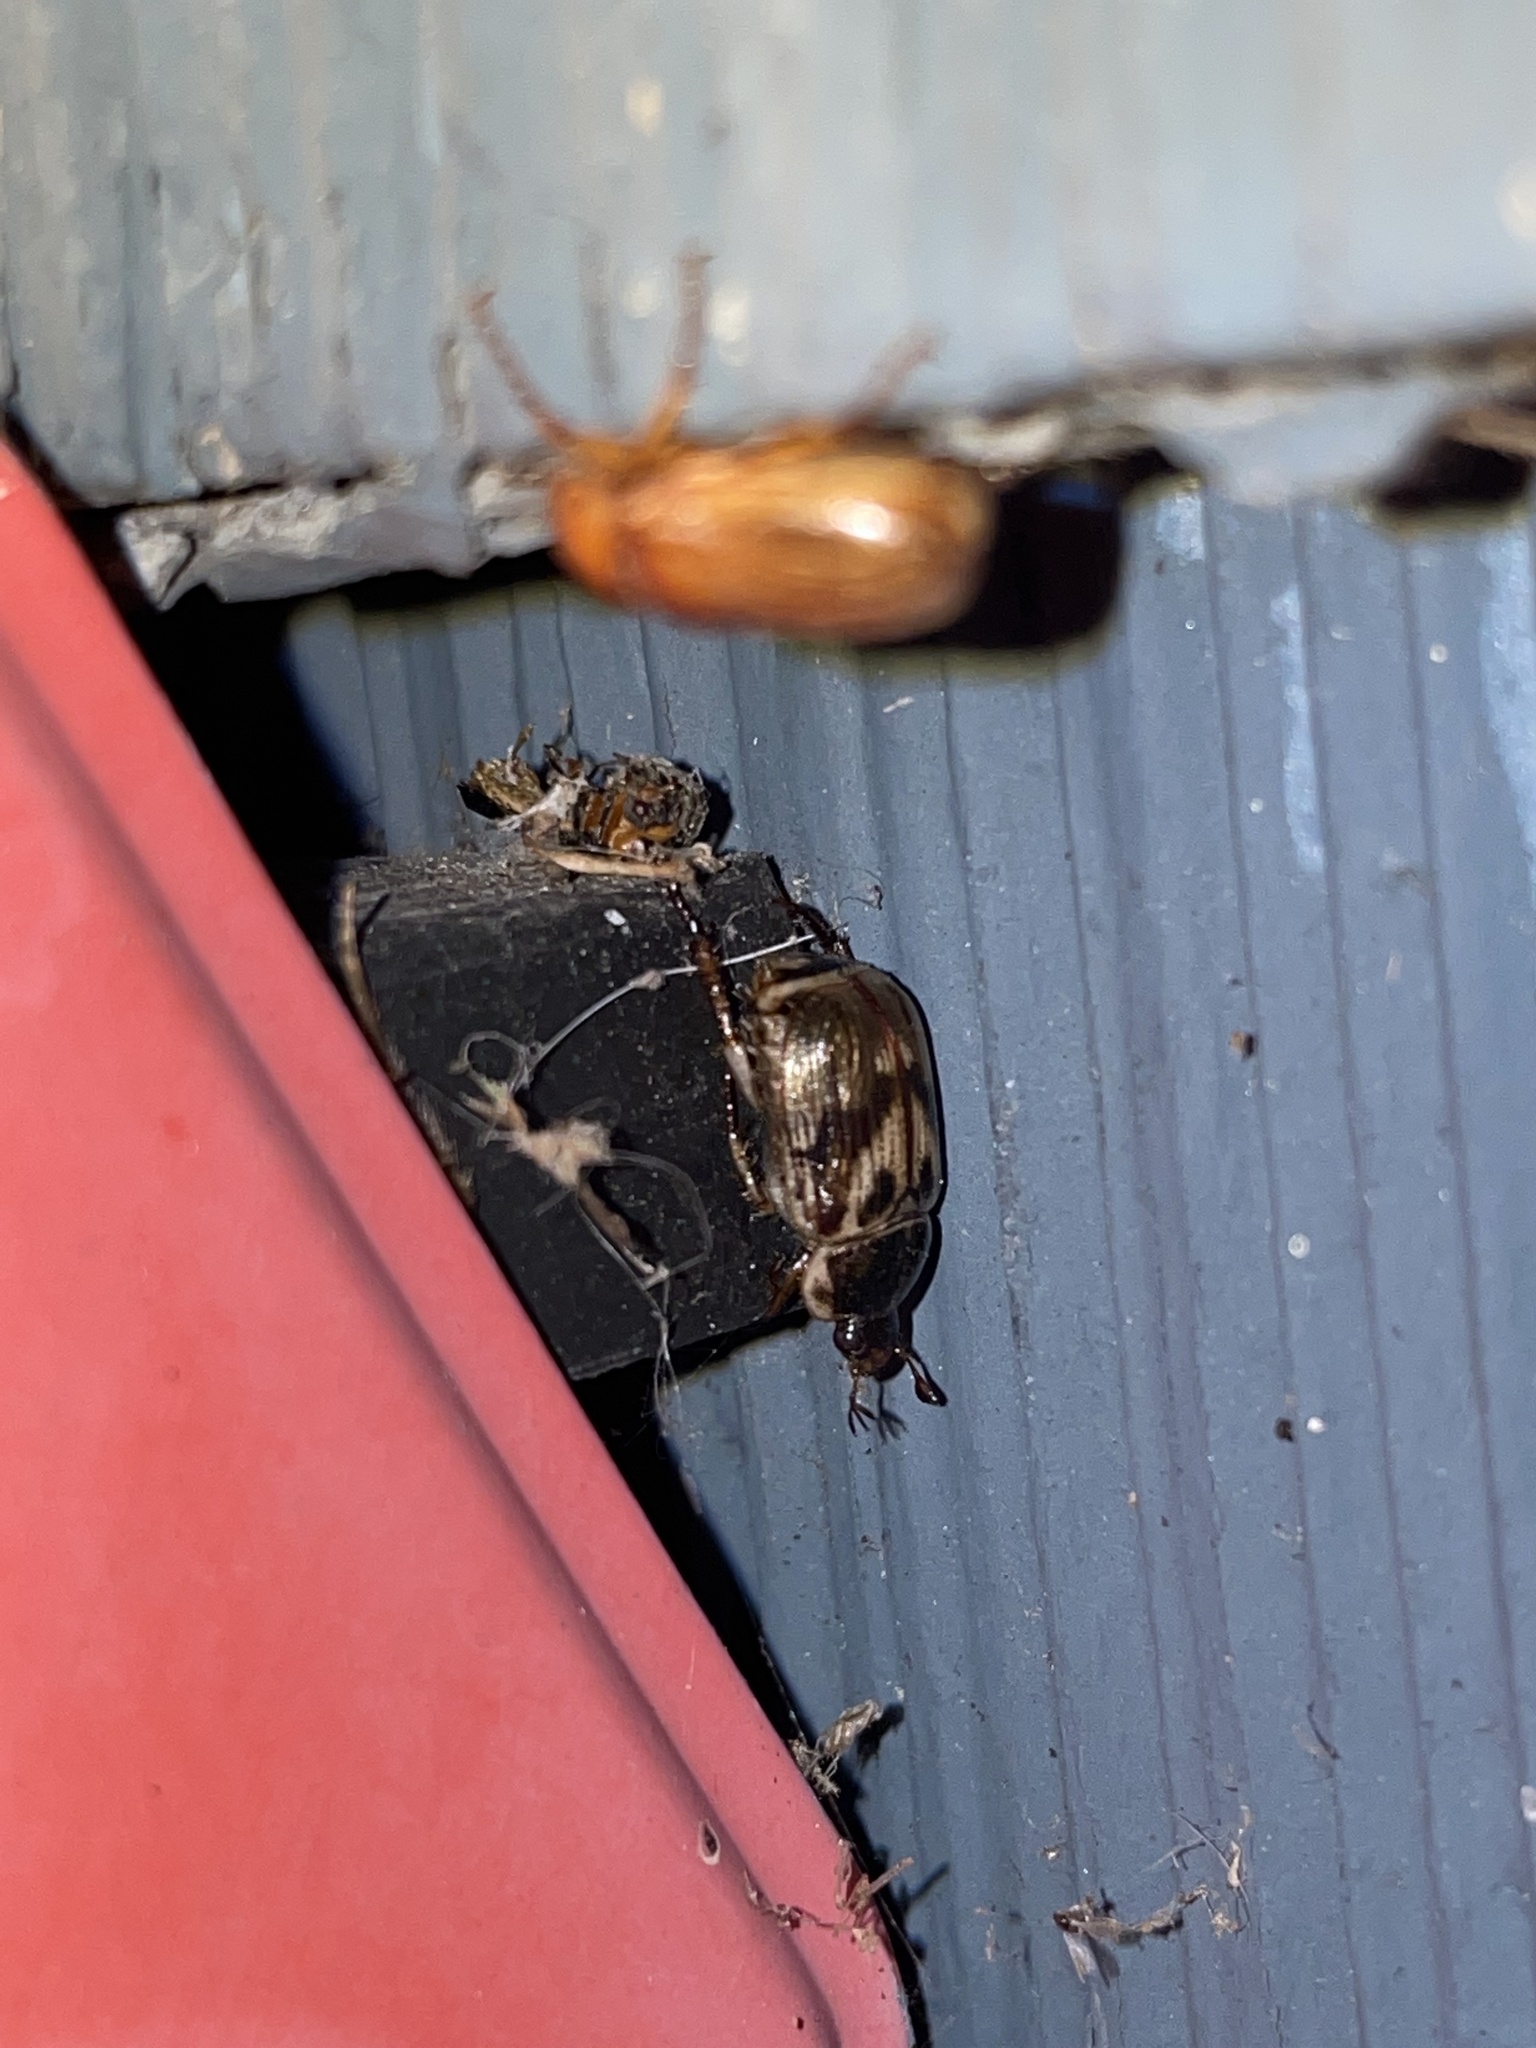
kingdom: Animalia
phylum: Arthropoda
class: Insecta
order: Coleoptera
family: Scarabaeidae
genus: Exomala
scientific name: Exomala orientalis
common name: Oriental beetle
